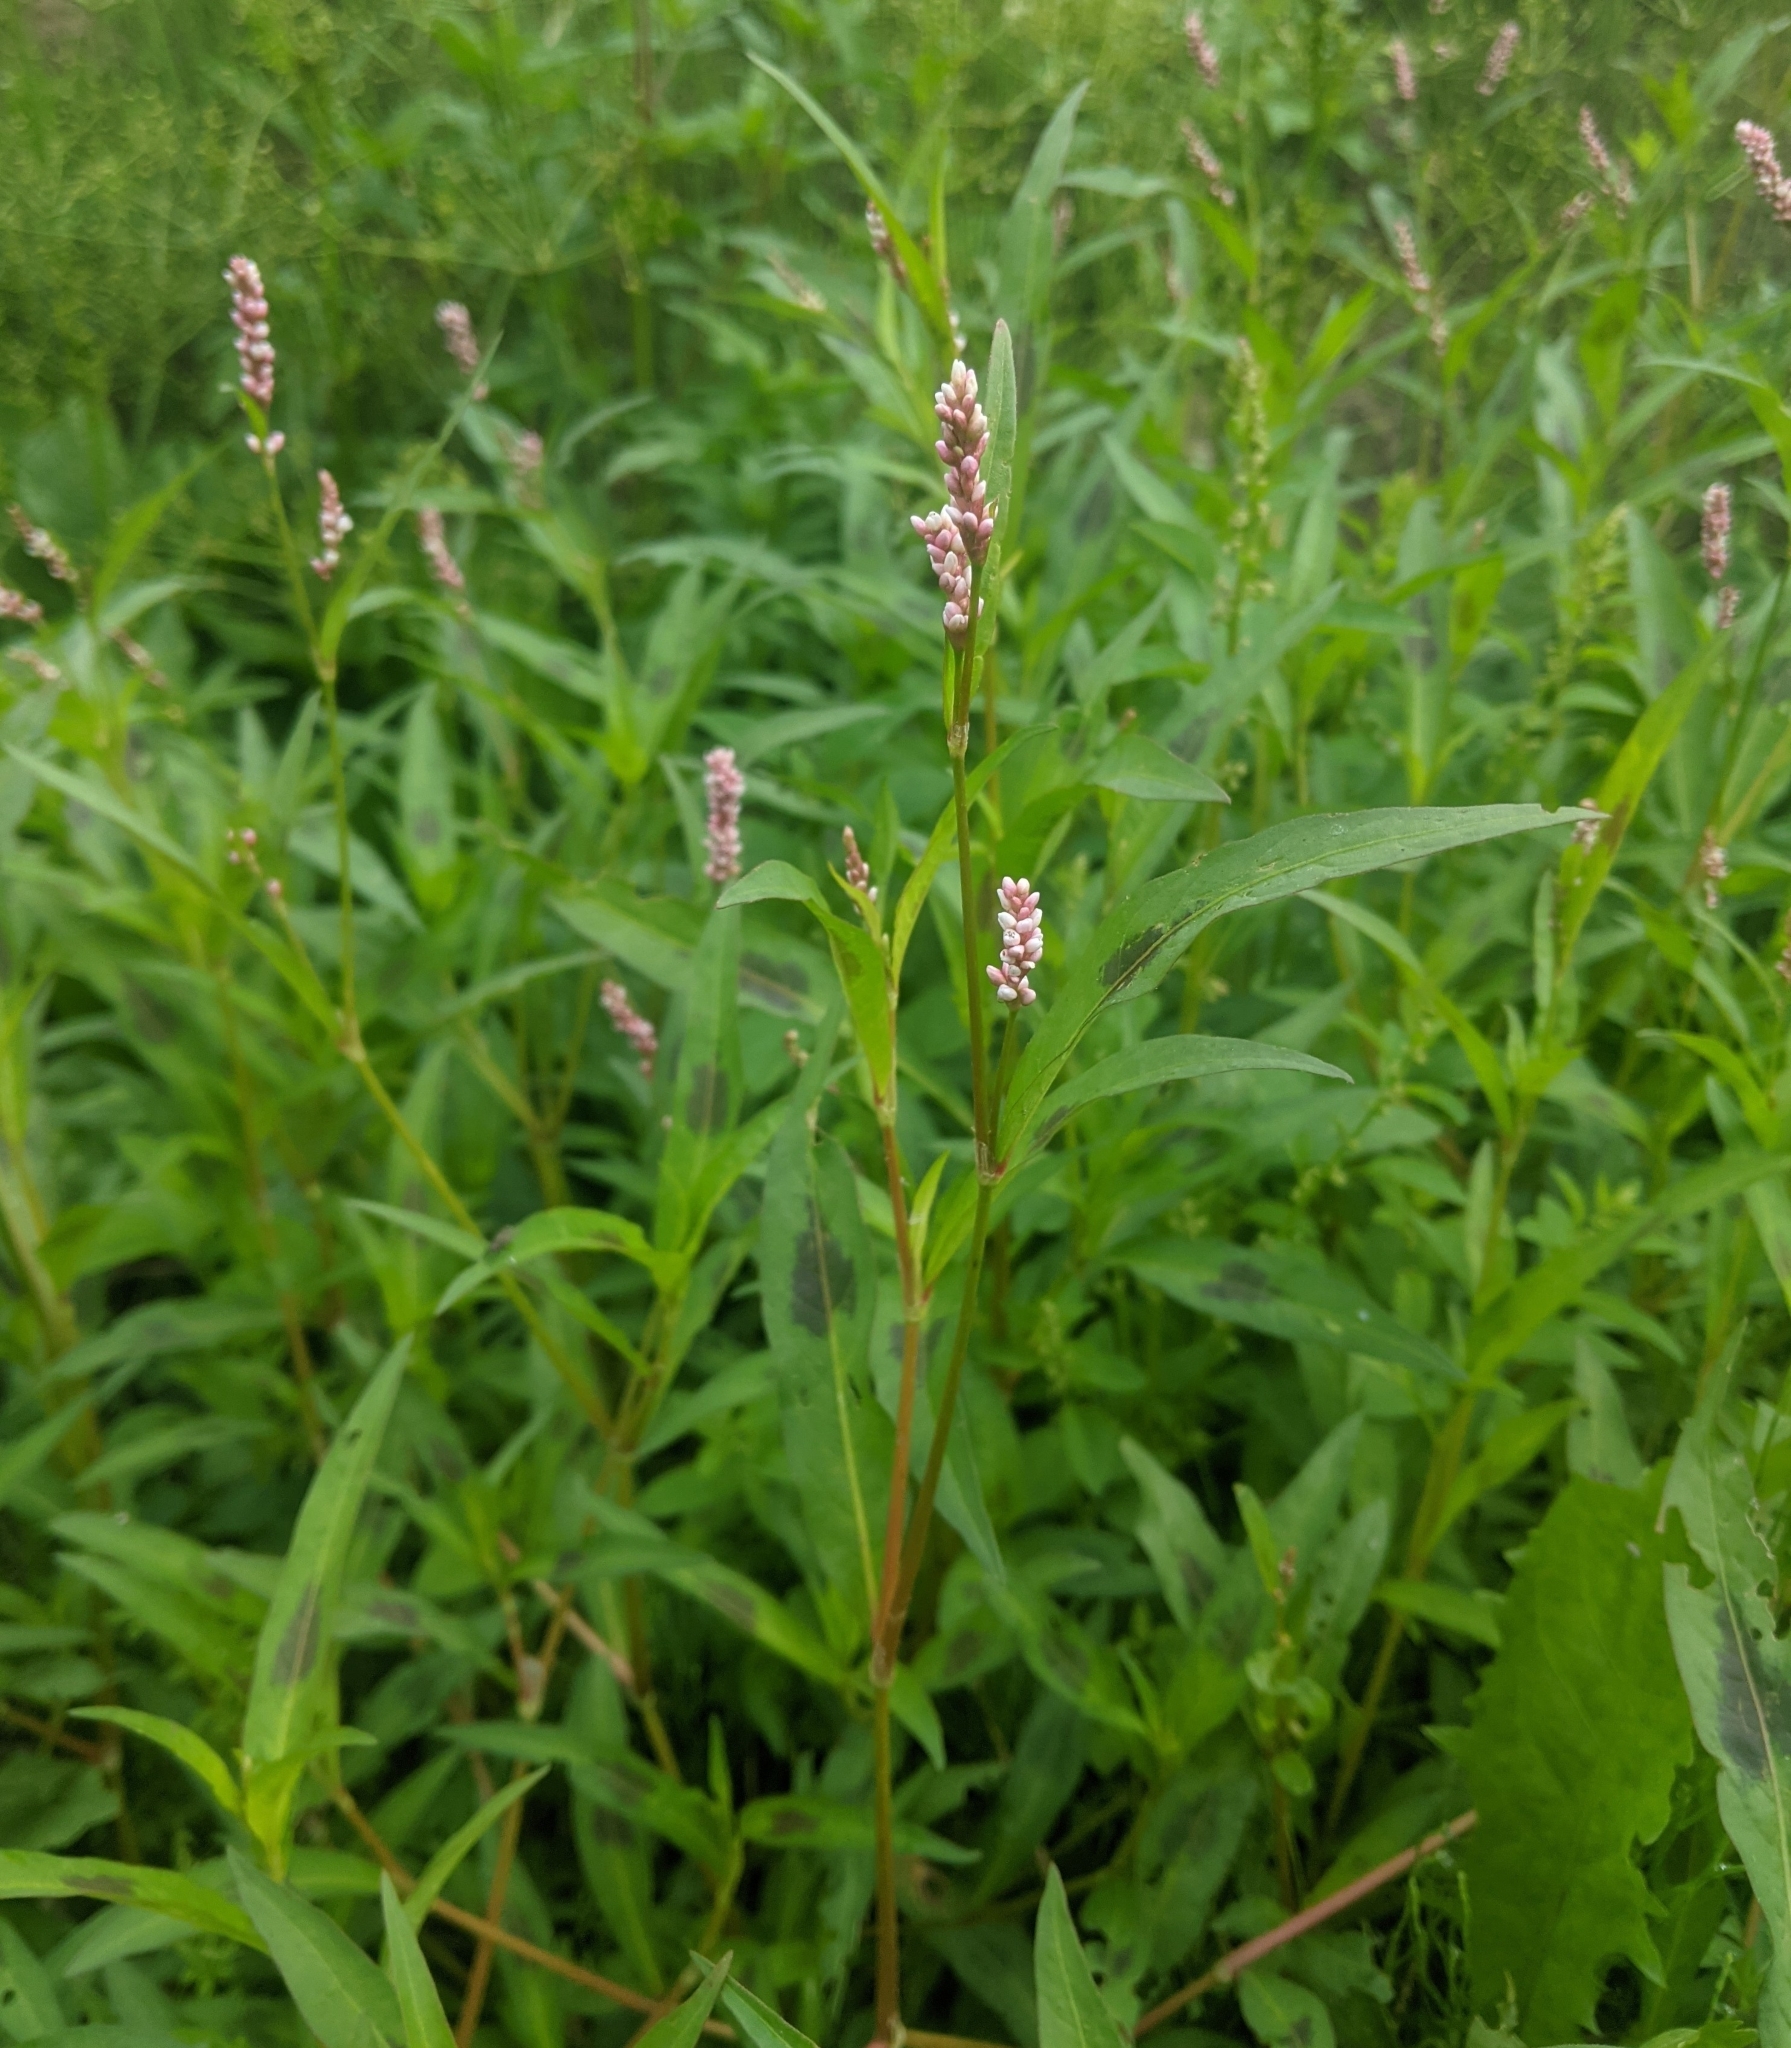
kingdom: Plantae
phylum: Tracheophyta
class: Magnoliopsida
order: Caryophyllales
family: Polygonaceae
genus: Persicaria
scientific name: Persicaria maculosa
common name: Redshank
